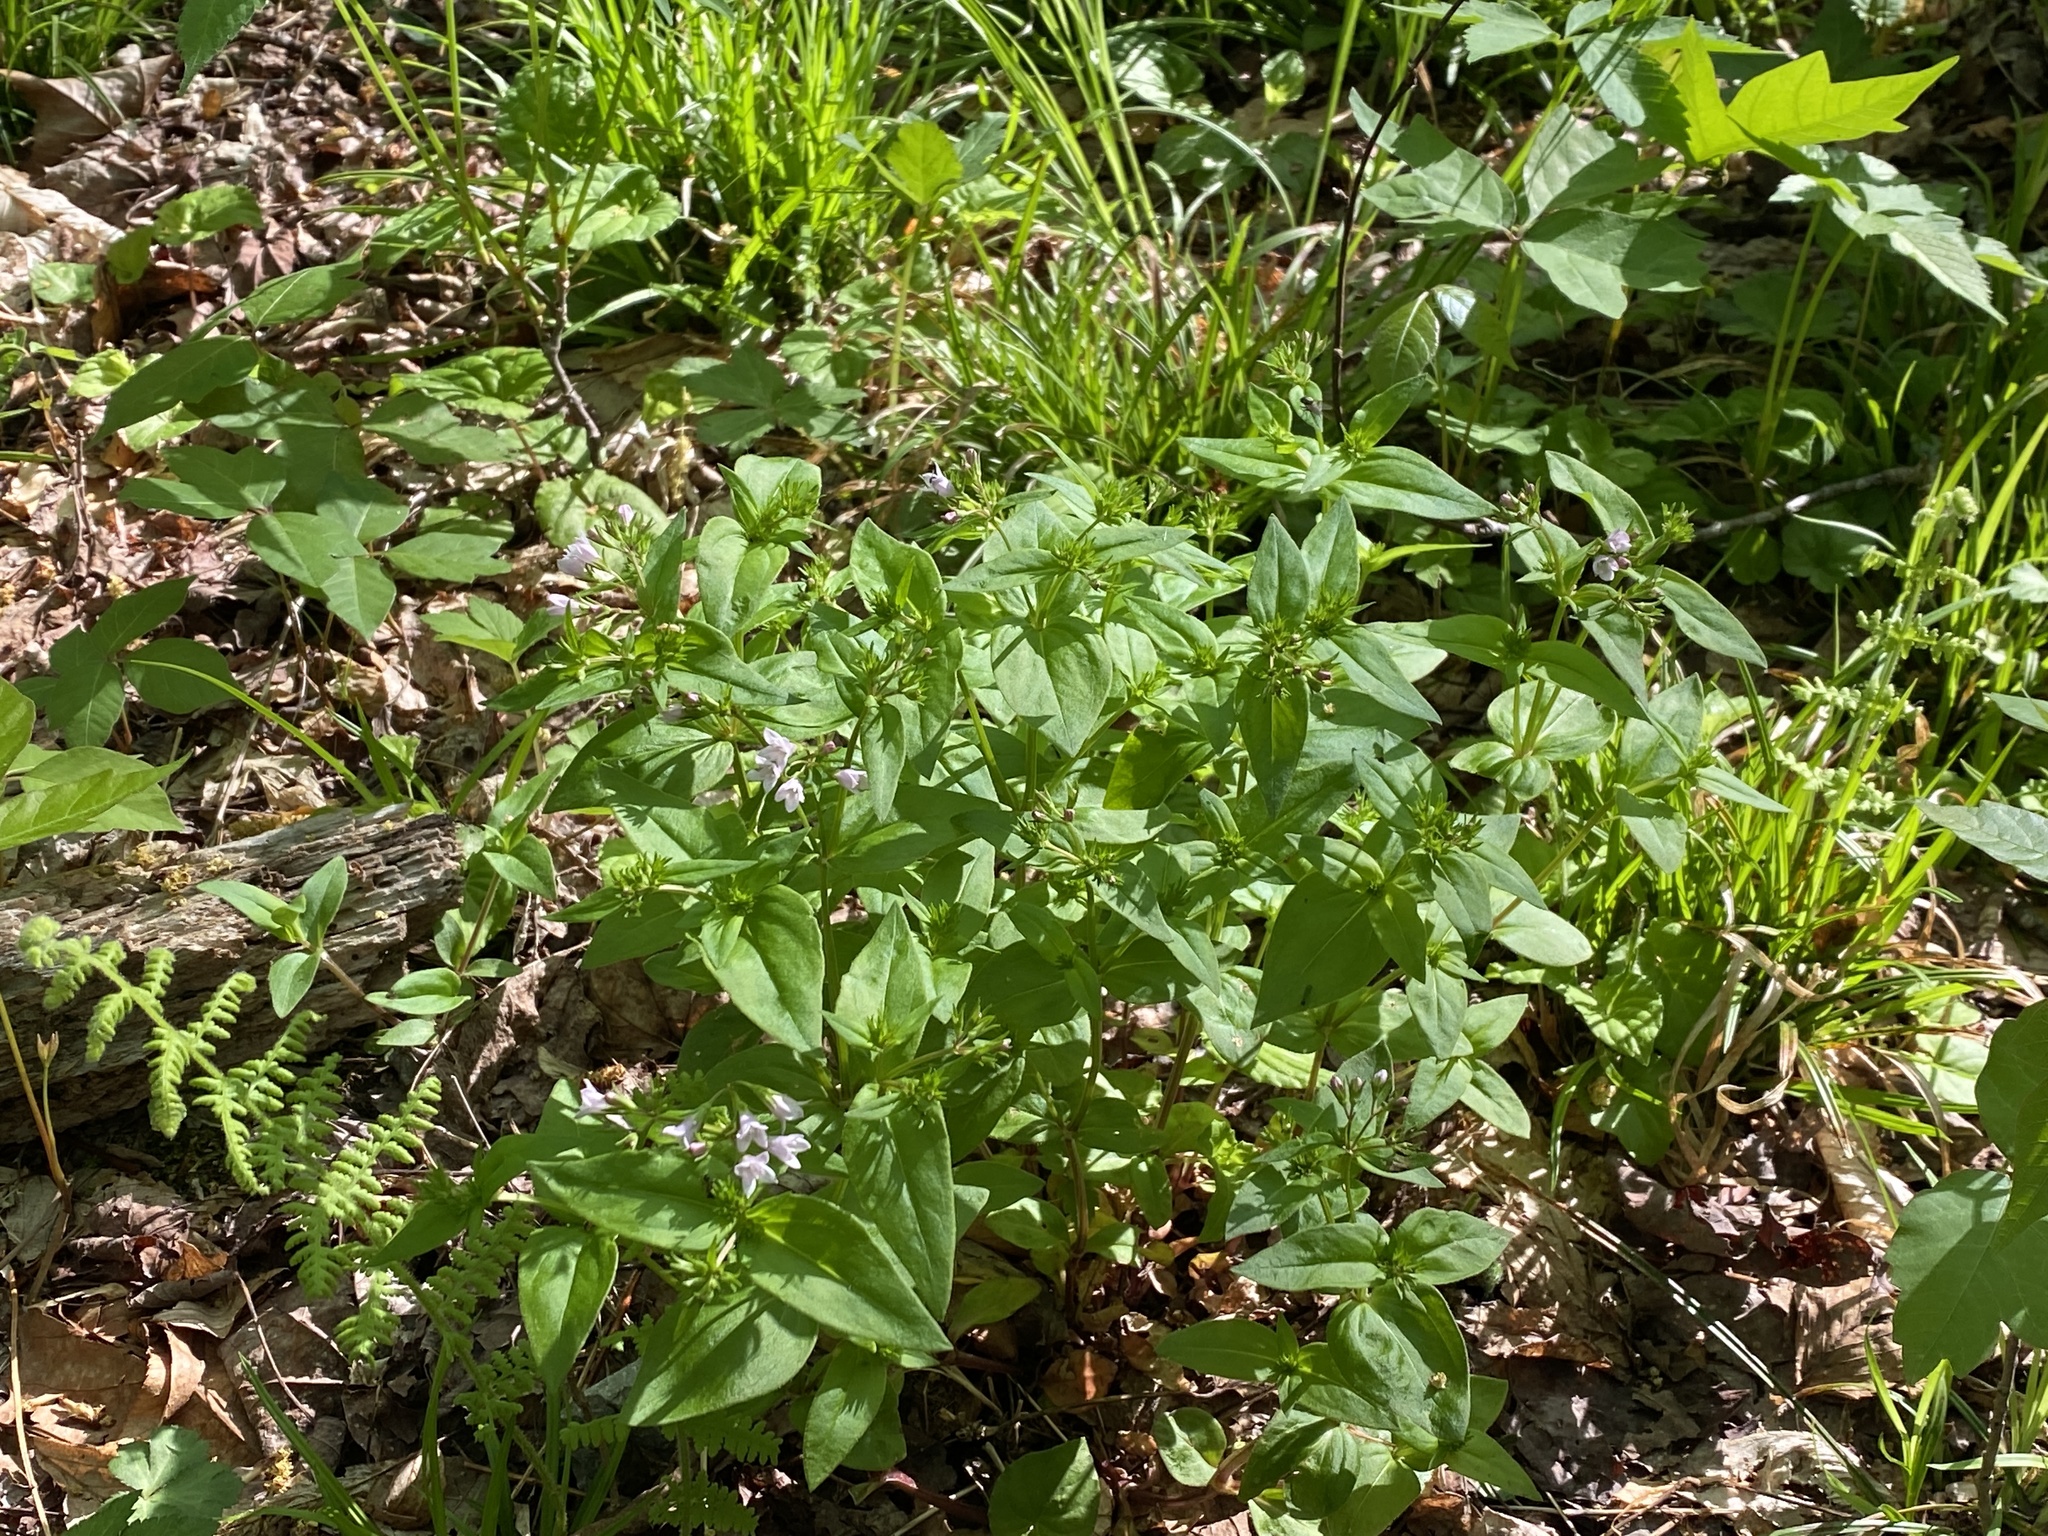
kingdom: Plantae
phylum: Tracheophyta
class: Magnoliopsida
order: Gentianales
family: Rubiaceae
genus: Houstonia
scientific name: Houstonia purpurea
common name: Summer bluet
